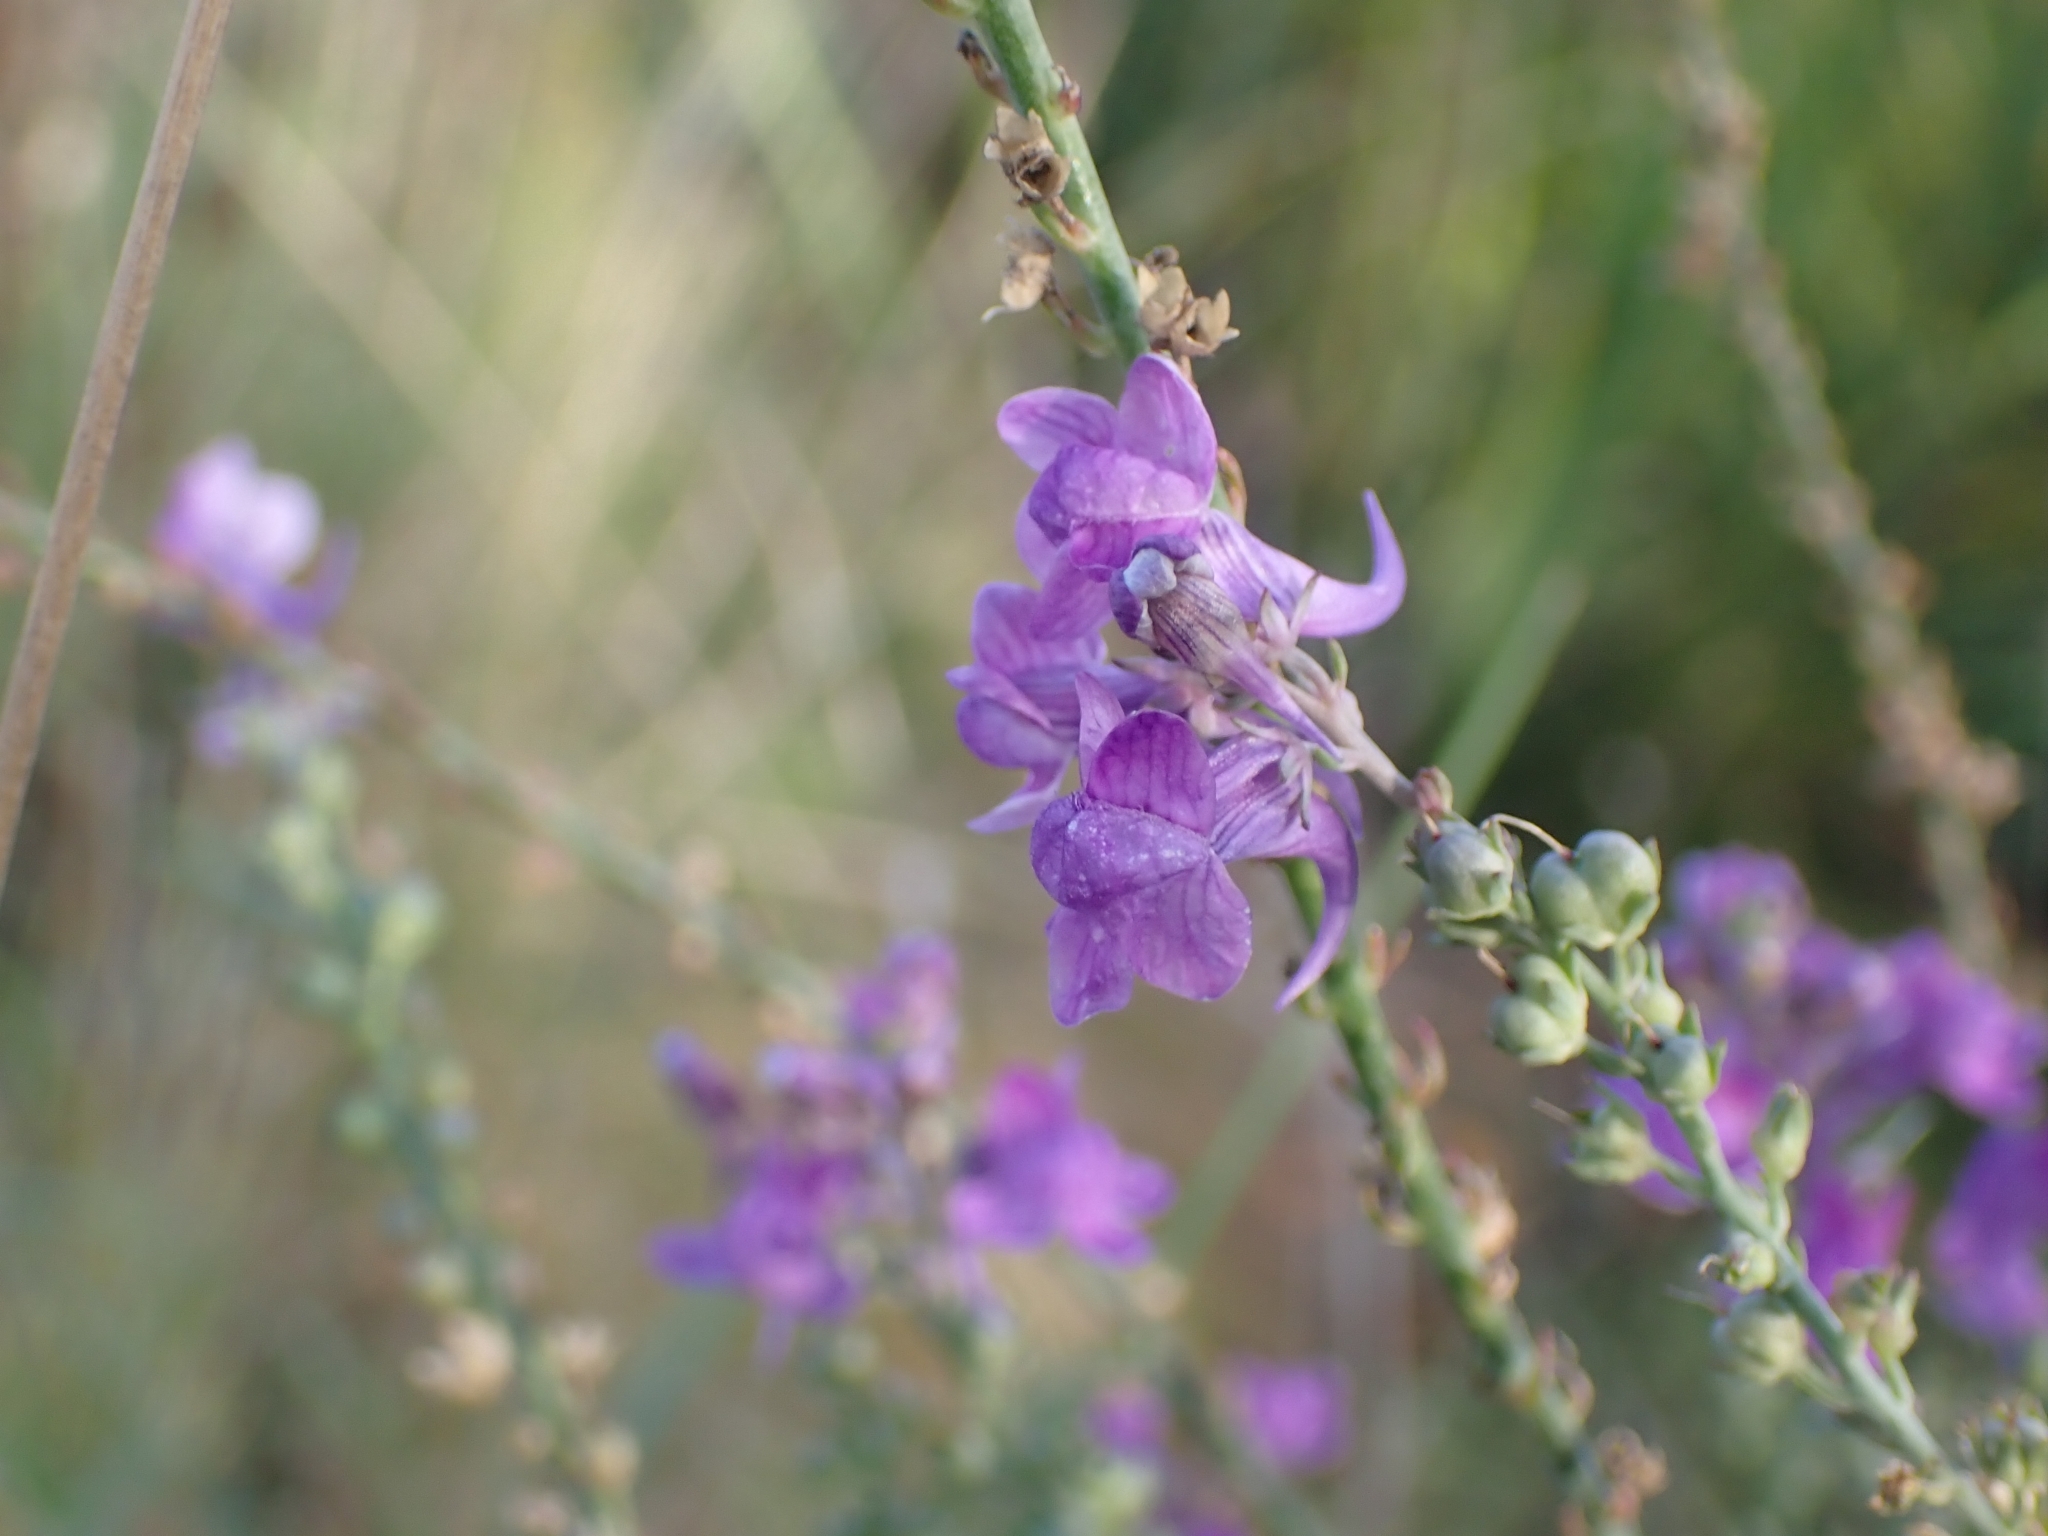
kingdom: Plantae
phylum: Tracheophyta
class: Magnoliopsida
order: Lamiales
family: Plantaginaceae
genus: Linaria
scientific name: Linaria purpurea
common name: Purple toadflax
